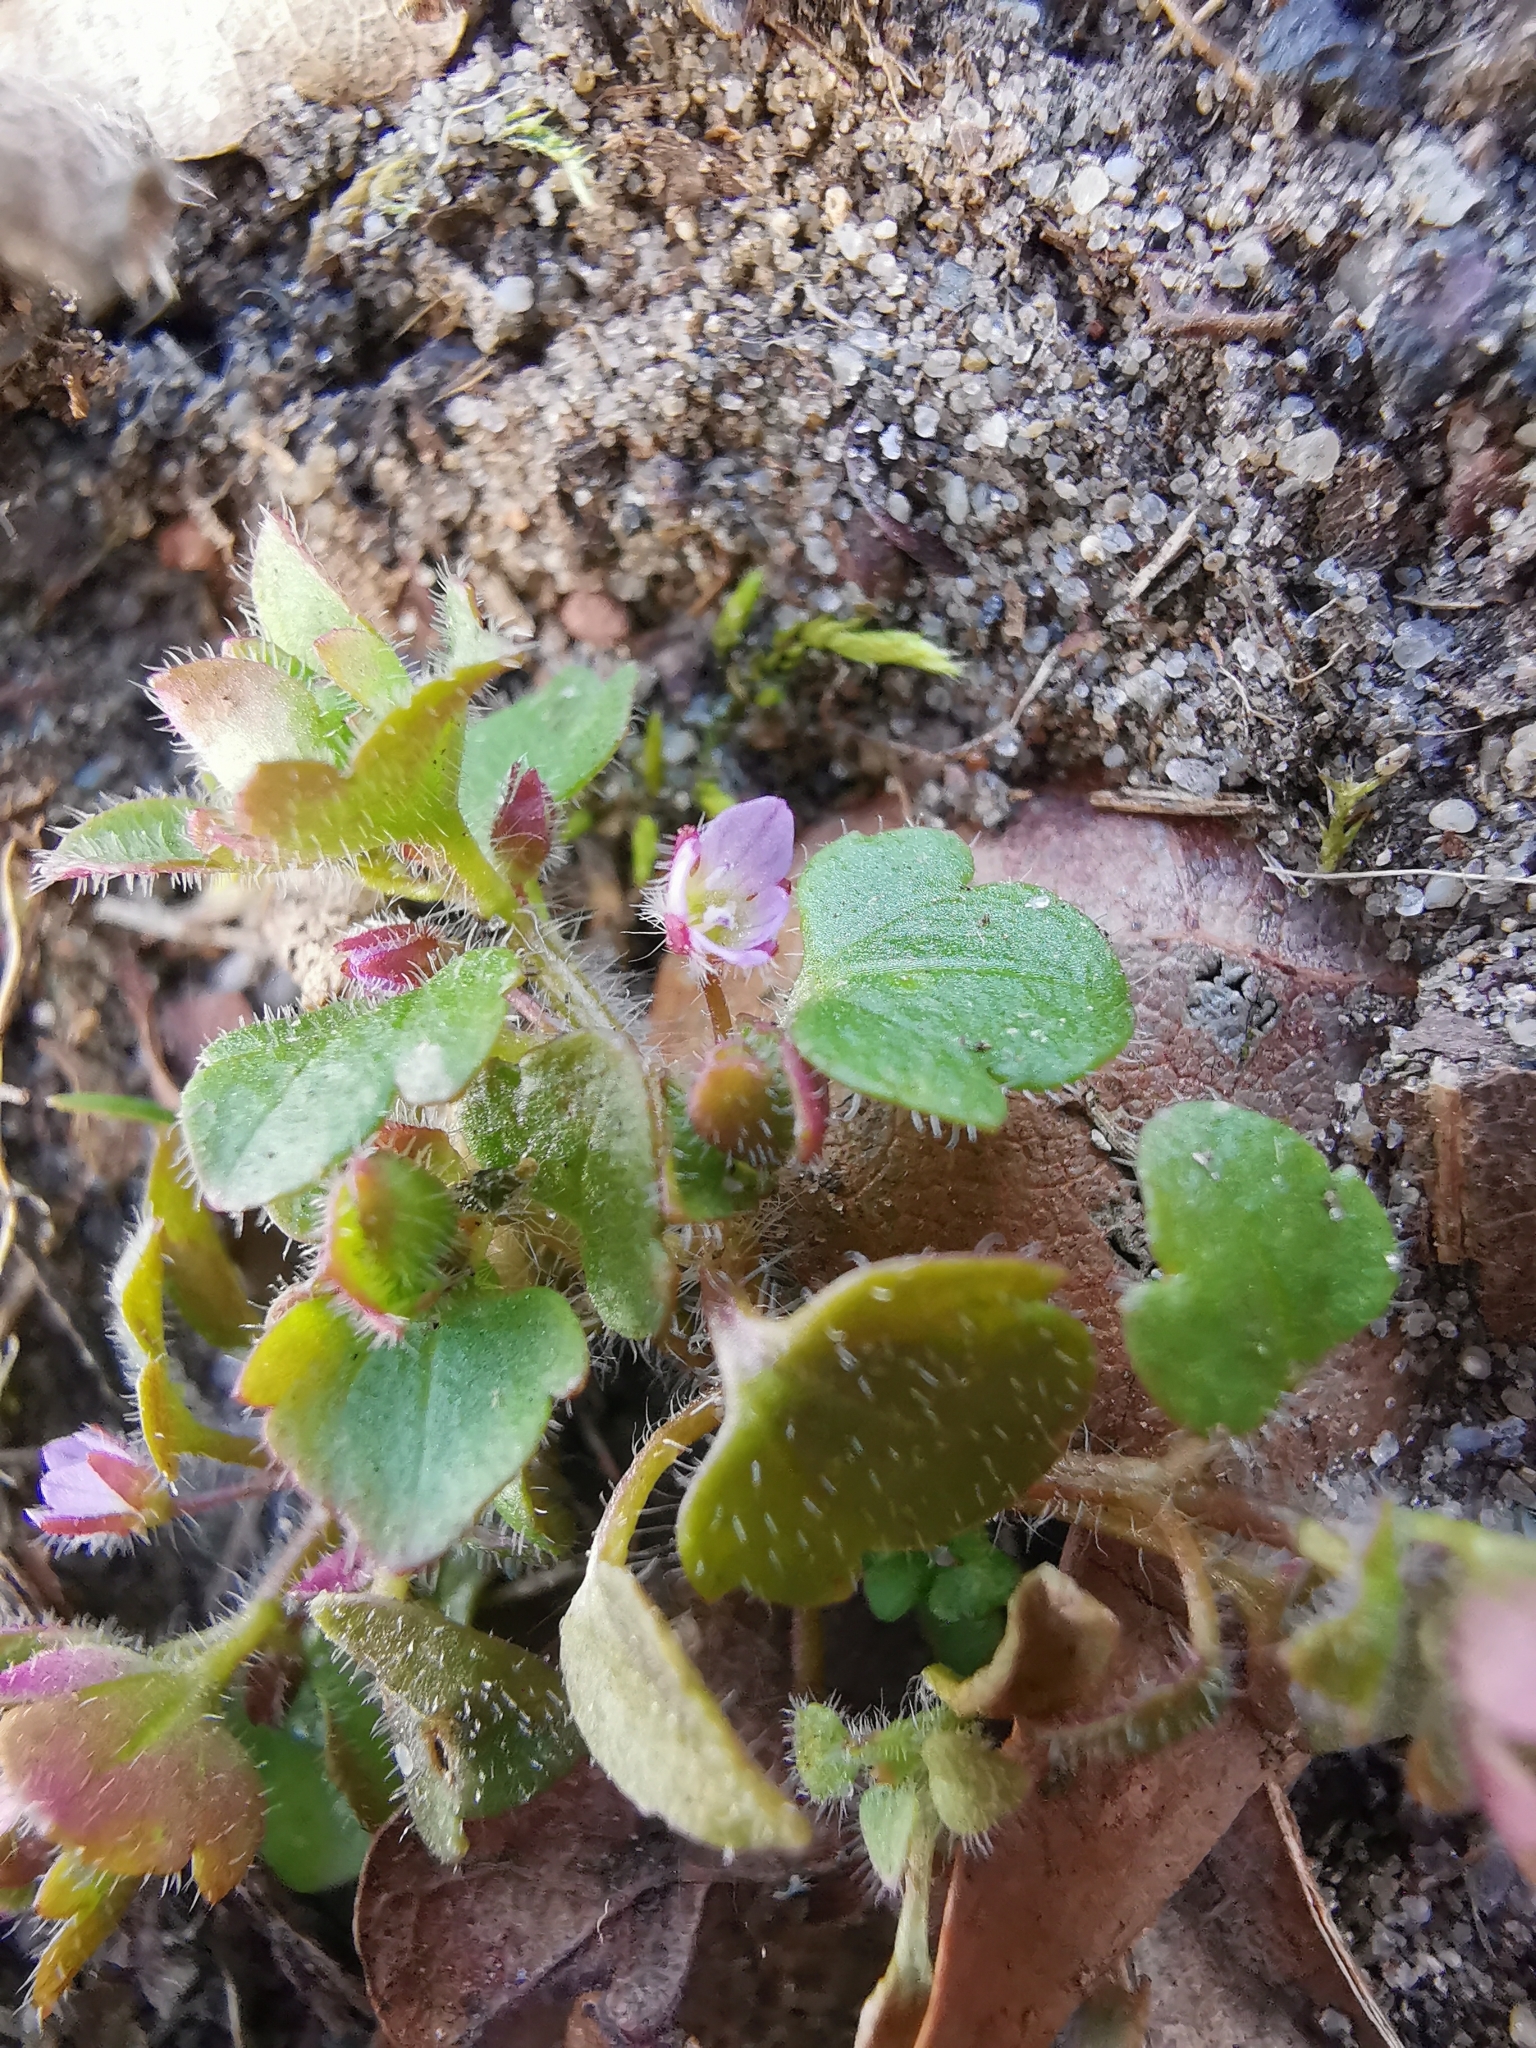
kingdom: Plantae
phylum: Tracheophyta
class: Magnoliopsida
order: Lamiales
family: Plantaginaceae
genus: Veronica
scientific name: Veronica sublobata
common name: False ivy-leaved speedwell
